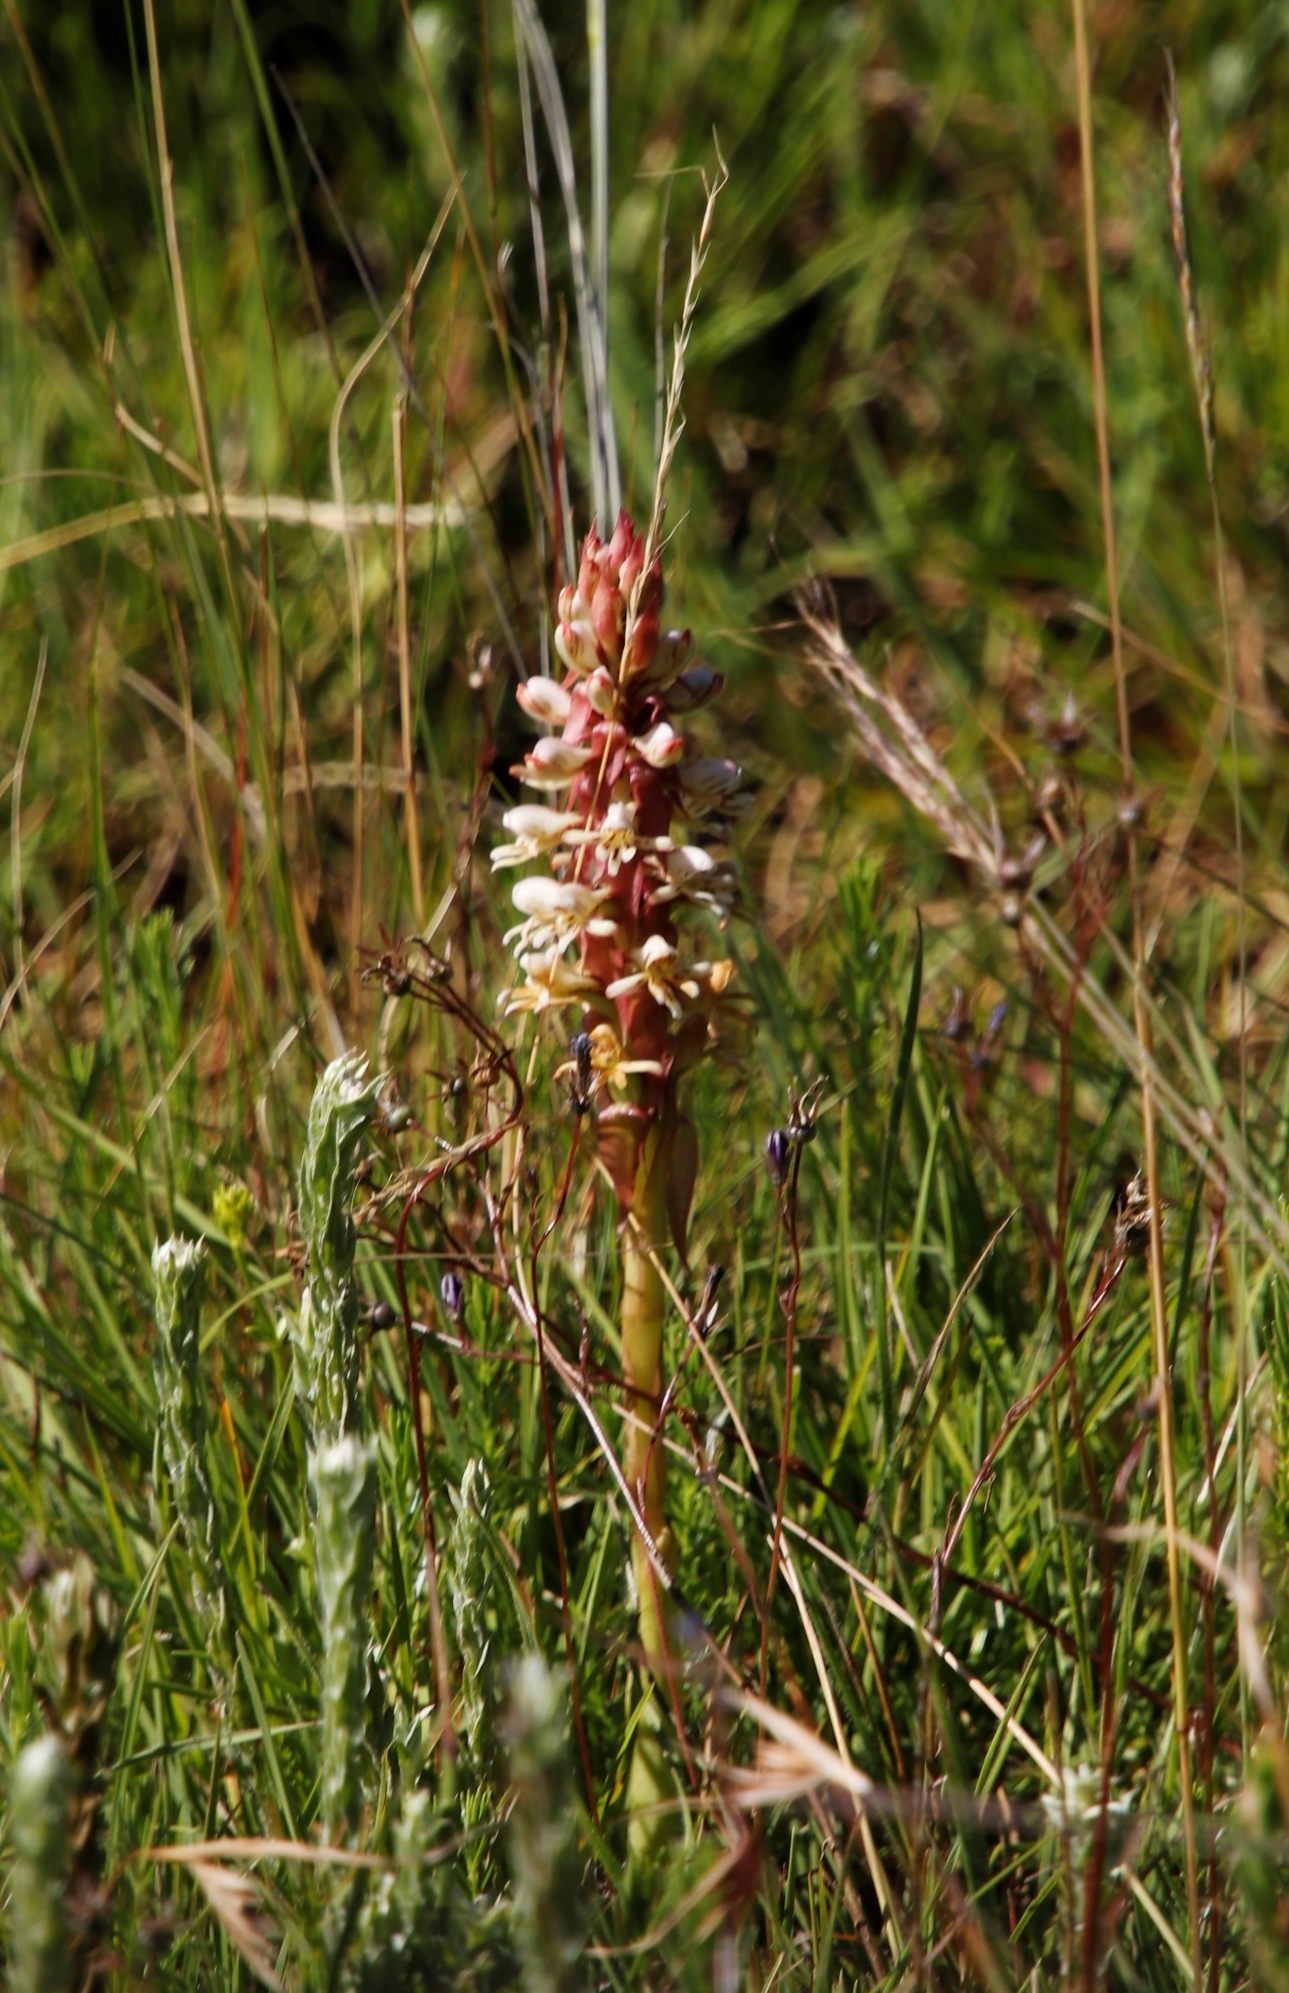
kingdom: Plantae
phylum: Tracheophyta
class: Liliopsida
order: Asparagales
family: Orchidaceae
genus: Satyrium
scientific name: Satyrium cristatum
